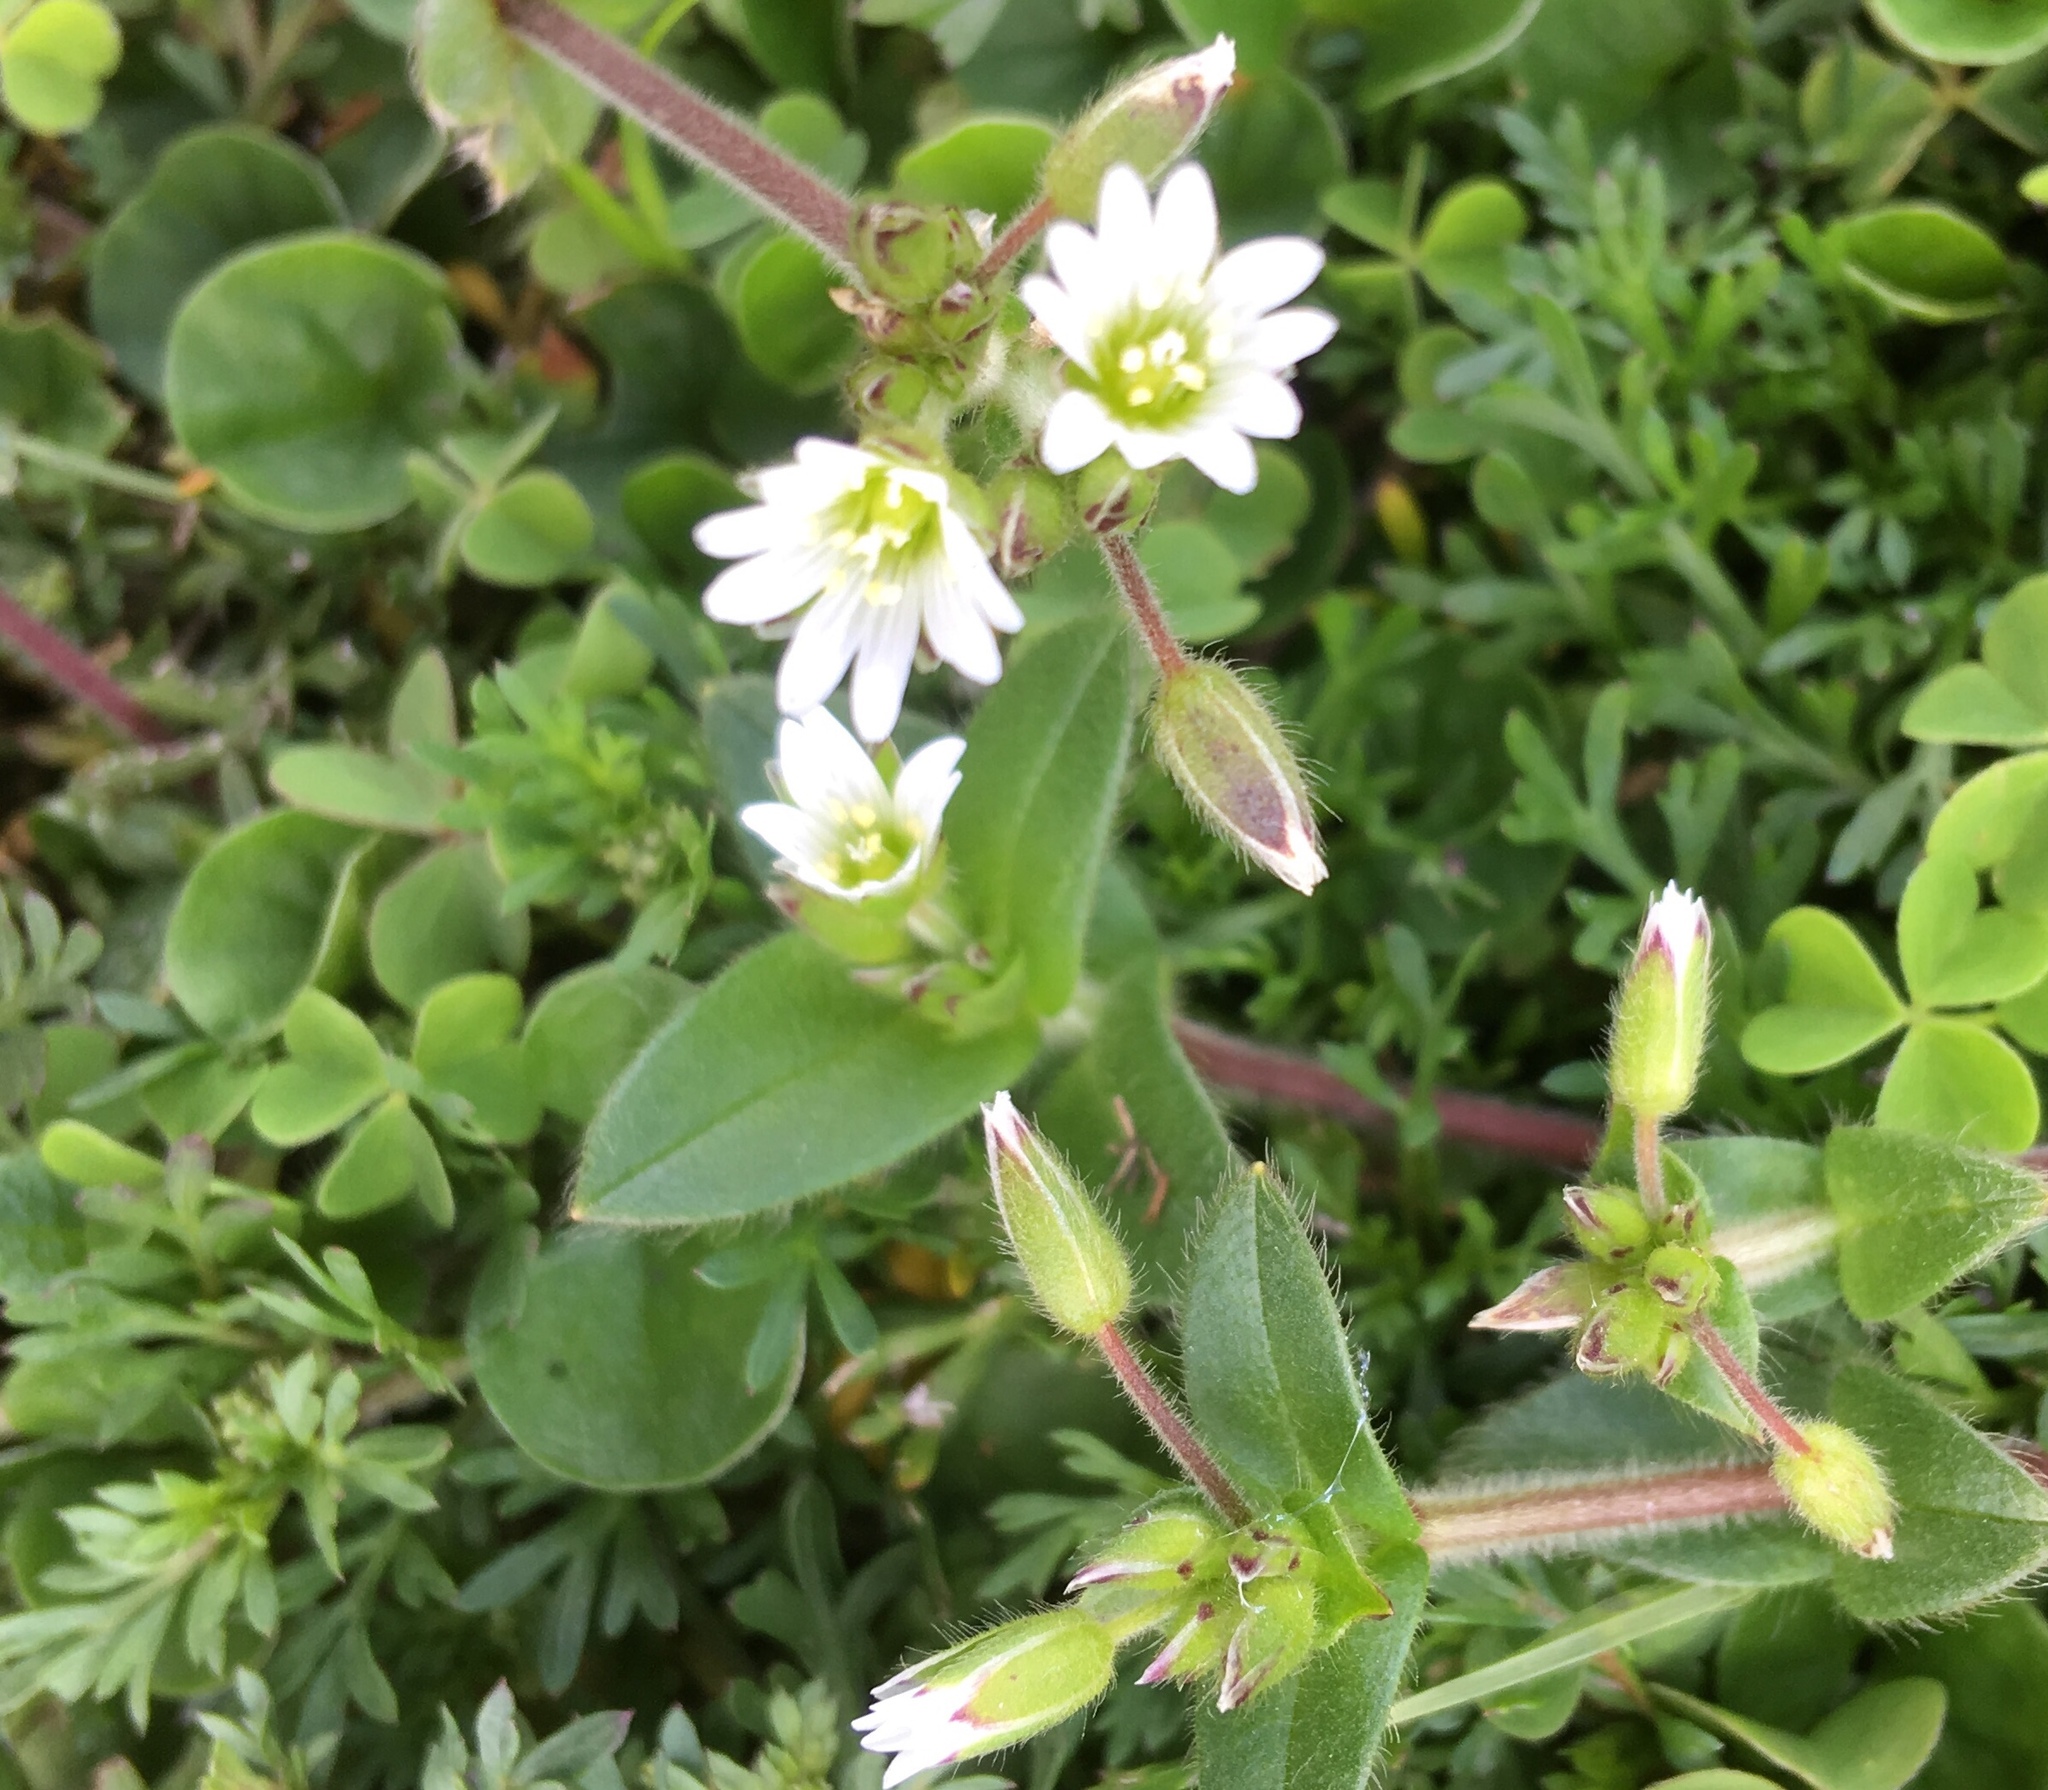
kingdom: Plantae
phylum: Tracheophyta
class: Magnoliopsida
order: Caryophyllales
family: Caryophyllaceae
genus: Cerastium
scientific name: Cerastium arvense
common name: Field mouse-ear
